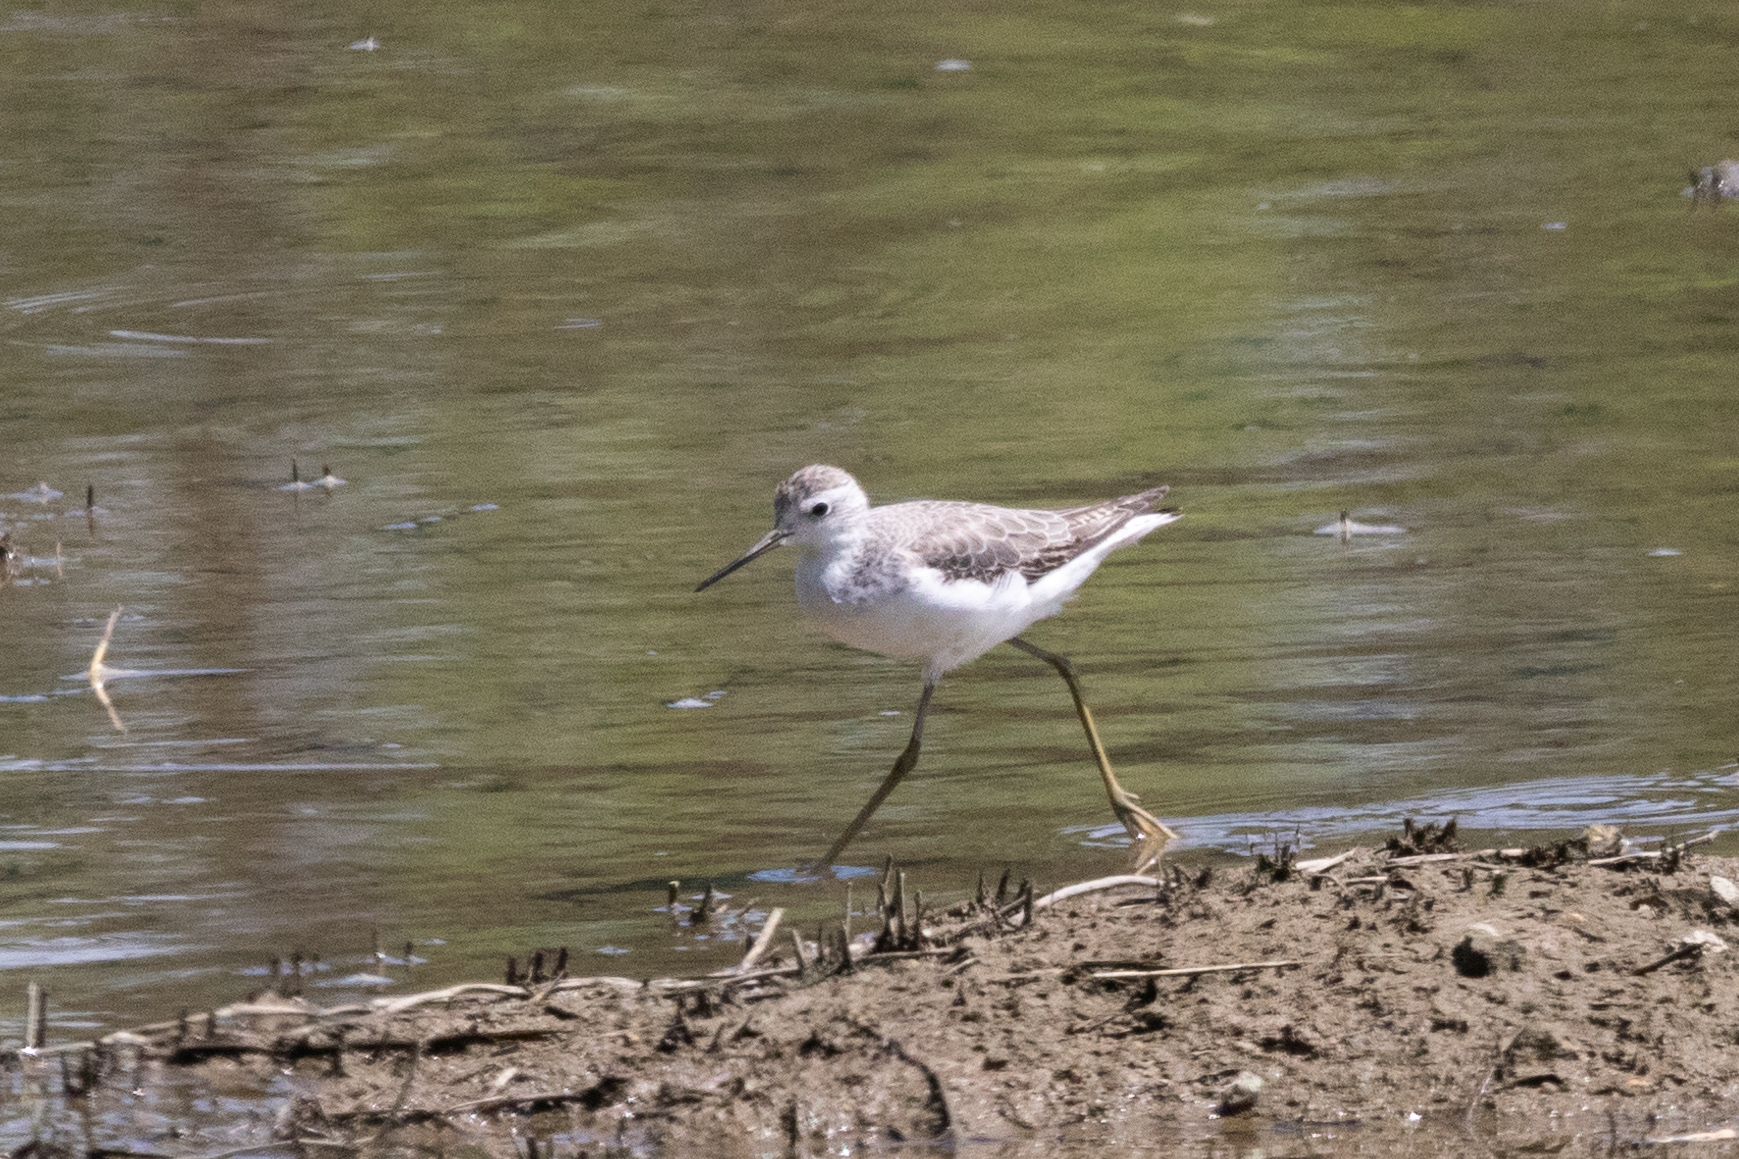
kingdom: Animalia
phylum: Chordata
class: Aves
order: Charadriiformes
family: Scolopacidae
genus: Tringa
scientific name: Tringa stagnatilis
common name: Marsh sandpiper
